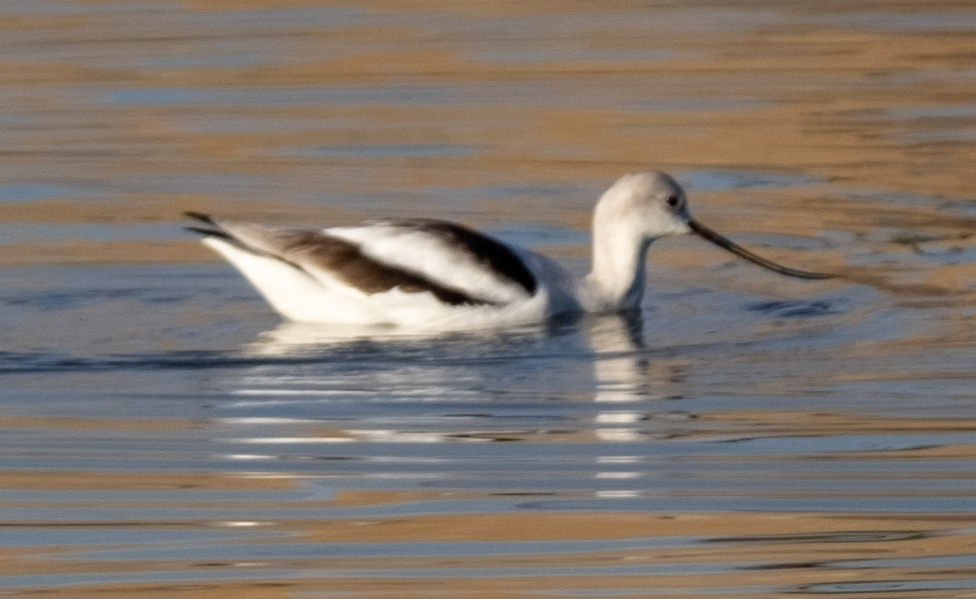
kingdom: Animalia
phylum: Chordata
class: Aves
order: Charadriiformes
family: Recurvirostridae
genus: Recurvirostra
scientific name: Recurvirostra americana
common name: American avocet
